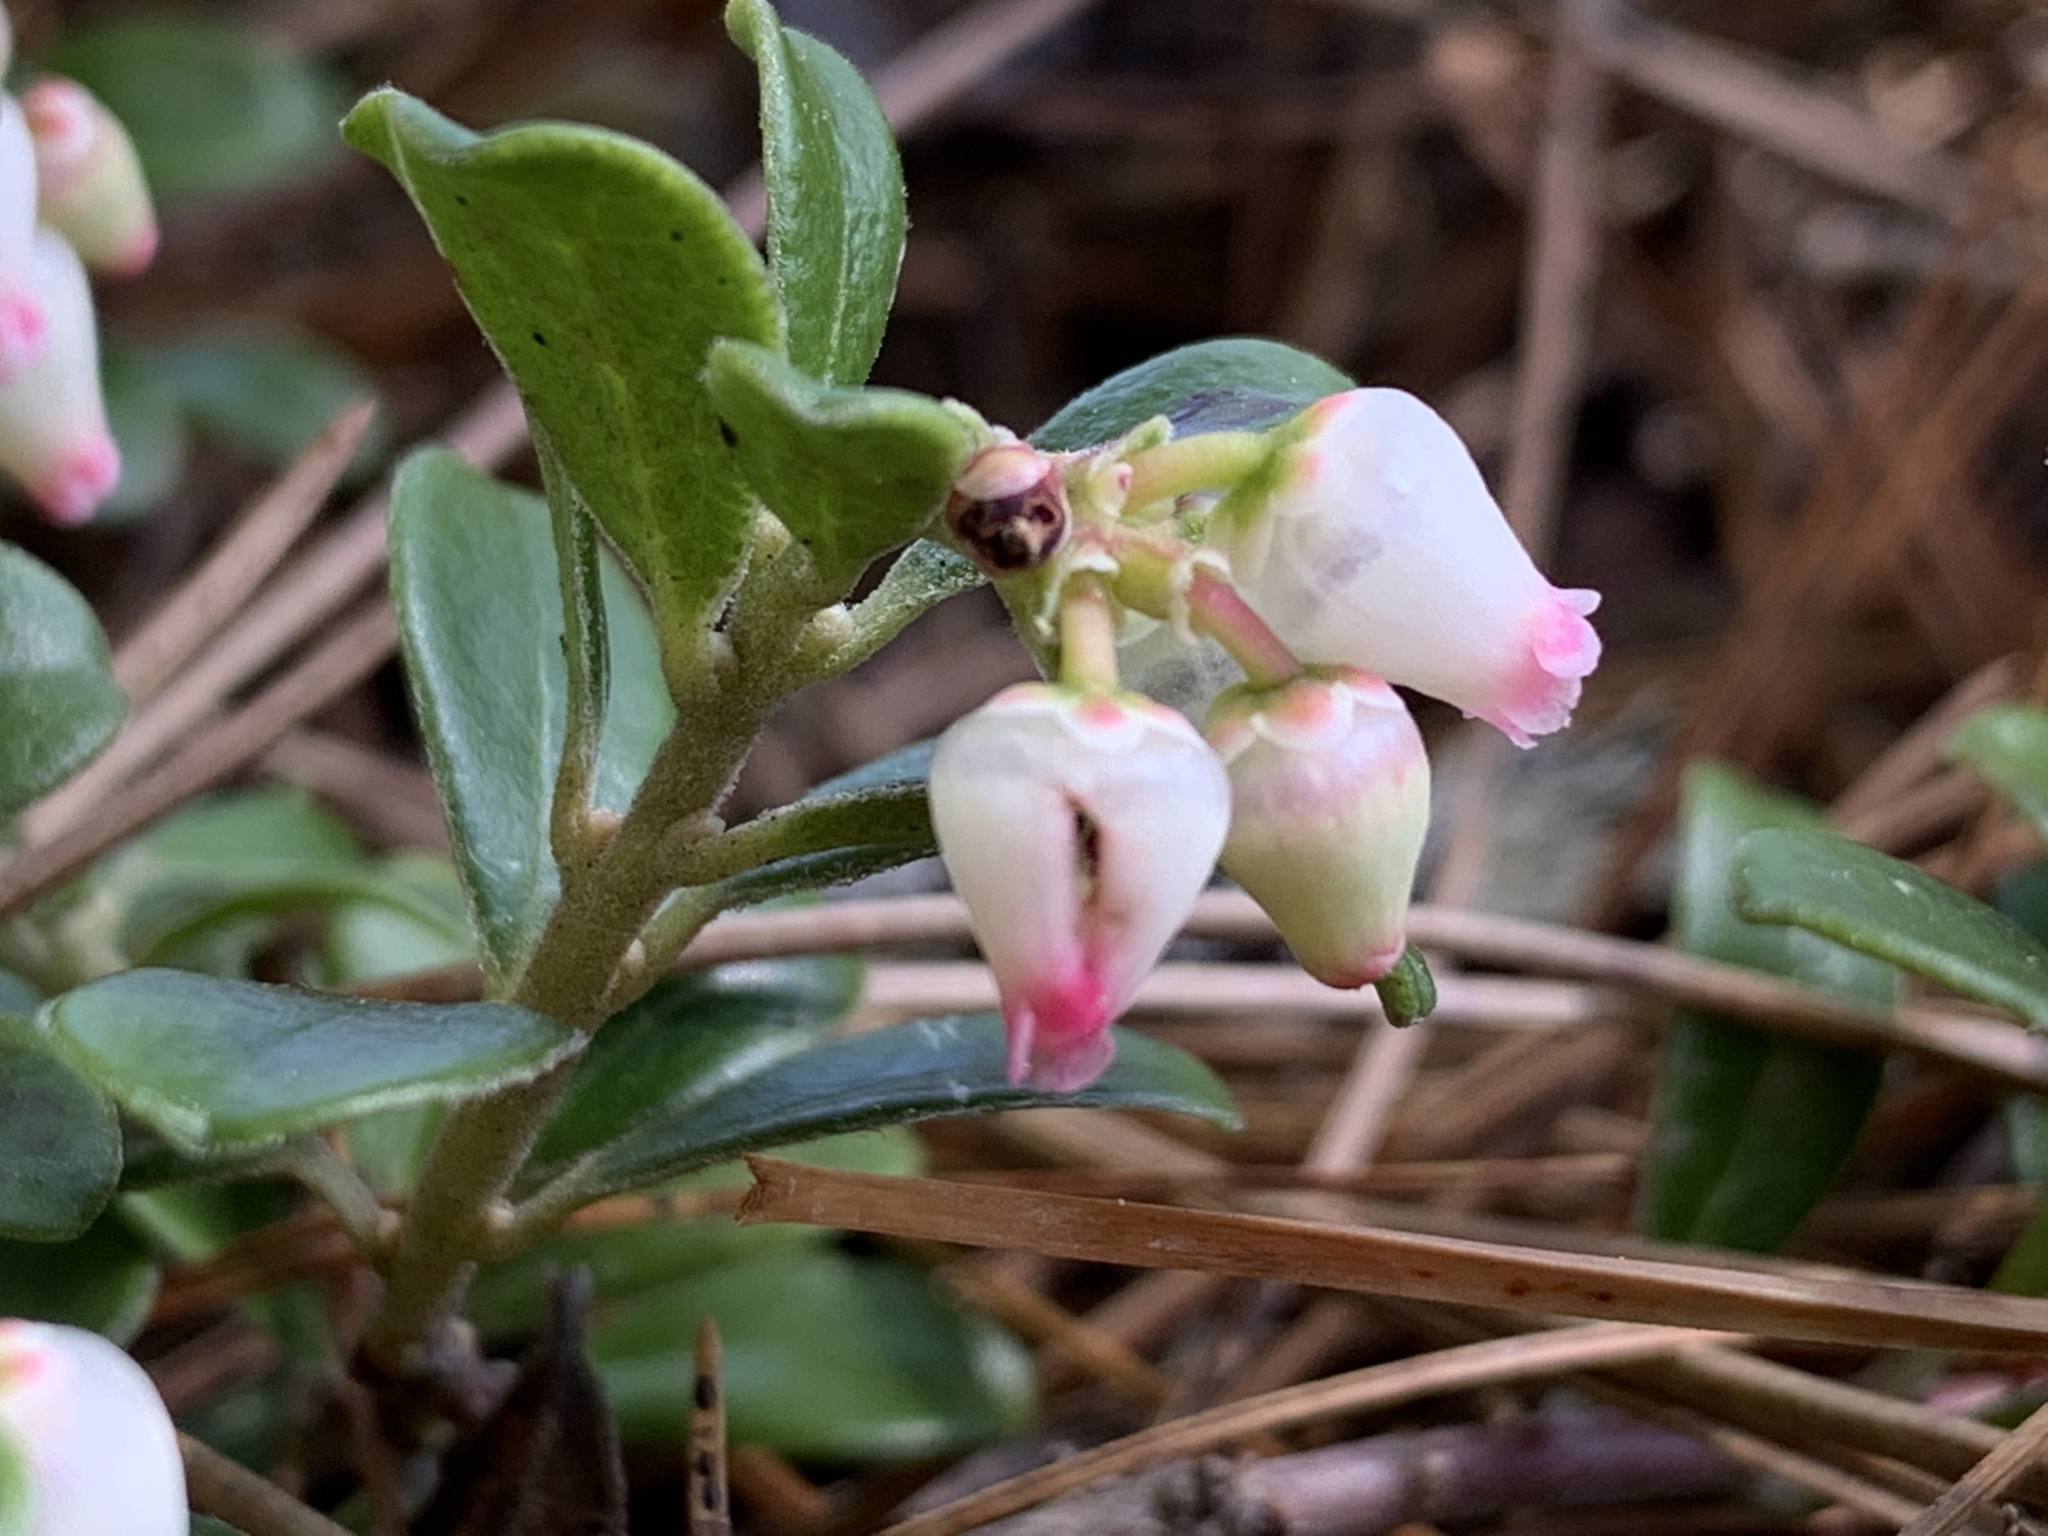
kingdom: Plantae
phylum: Tracheophyta
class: Magnoliopsida
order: Ericales
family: Ericaceae
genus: Arctostaphylos
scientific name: Arctostaphylos uva-ursi
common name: Bearberry
